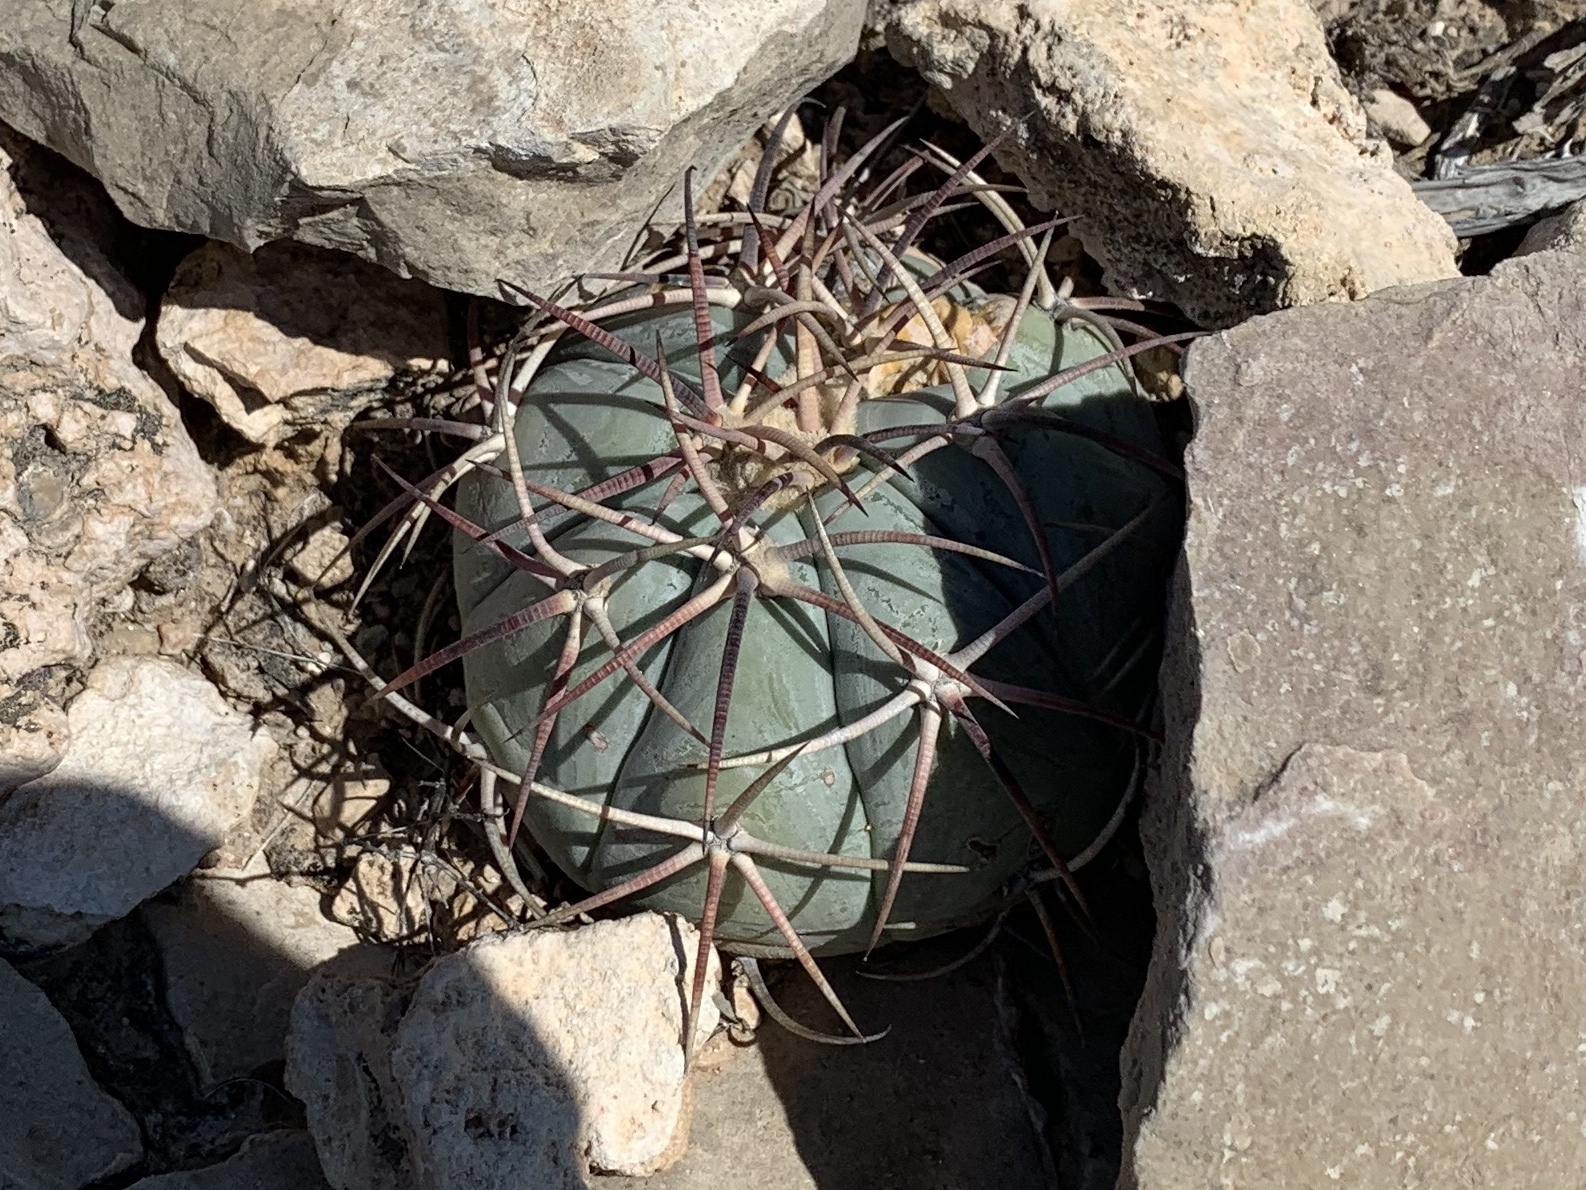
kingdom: Plantae
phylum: Tracheophyta
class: Magnoliopsida
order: Caryophyllales
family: Cactaceae
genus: Echinocactus
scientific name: Echinocactus horizonthalonius
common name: Devilshead
